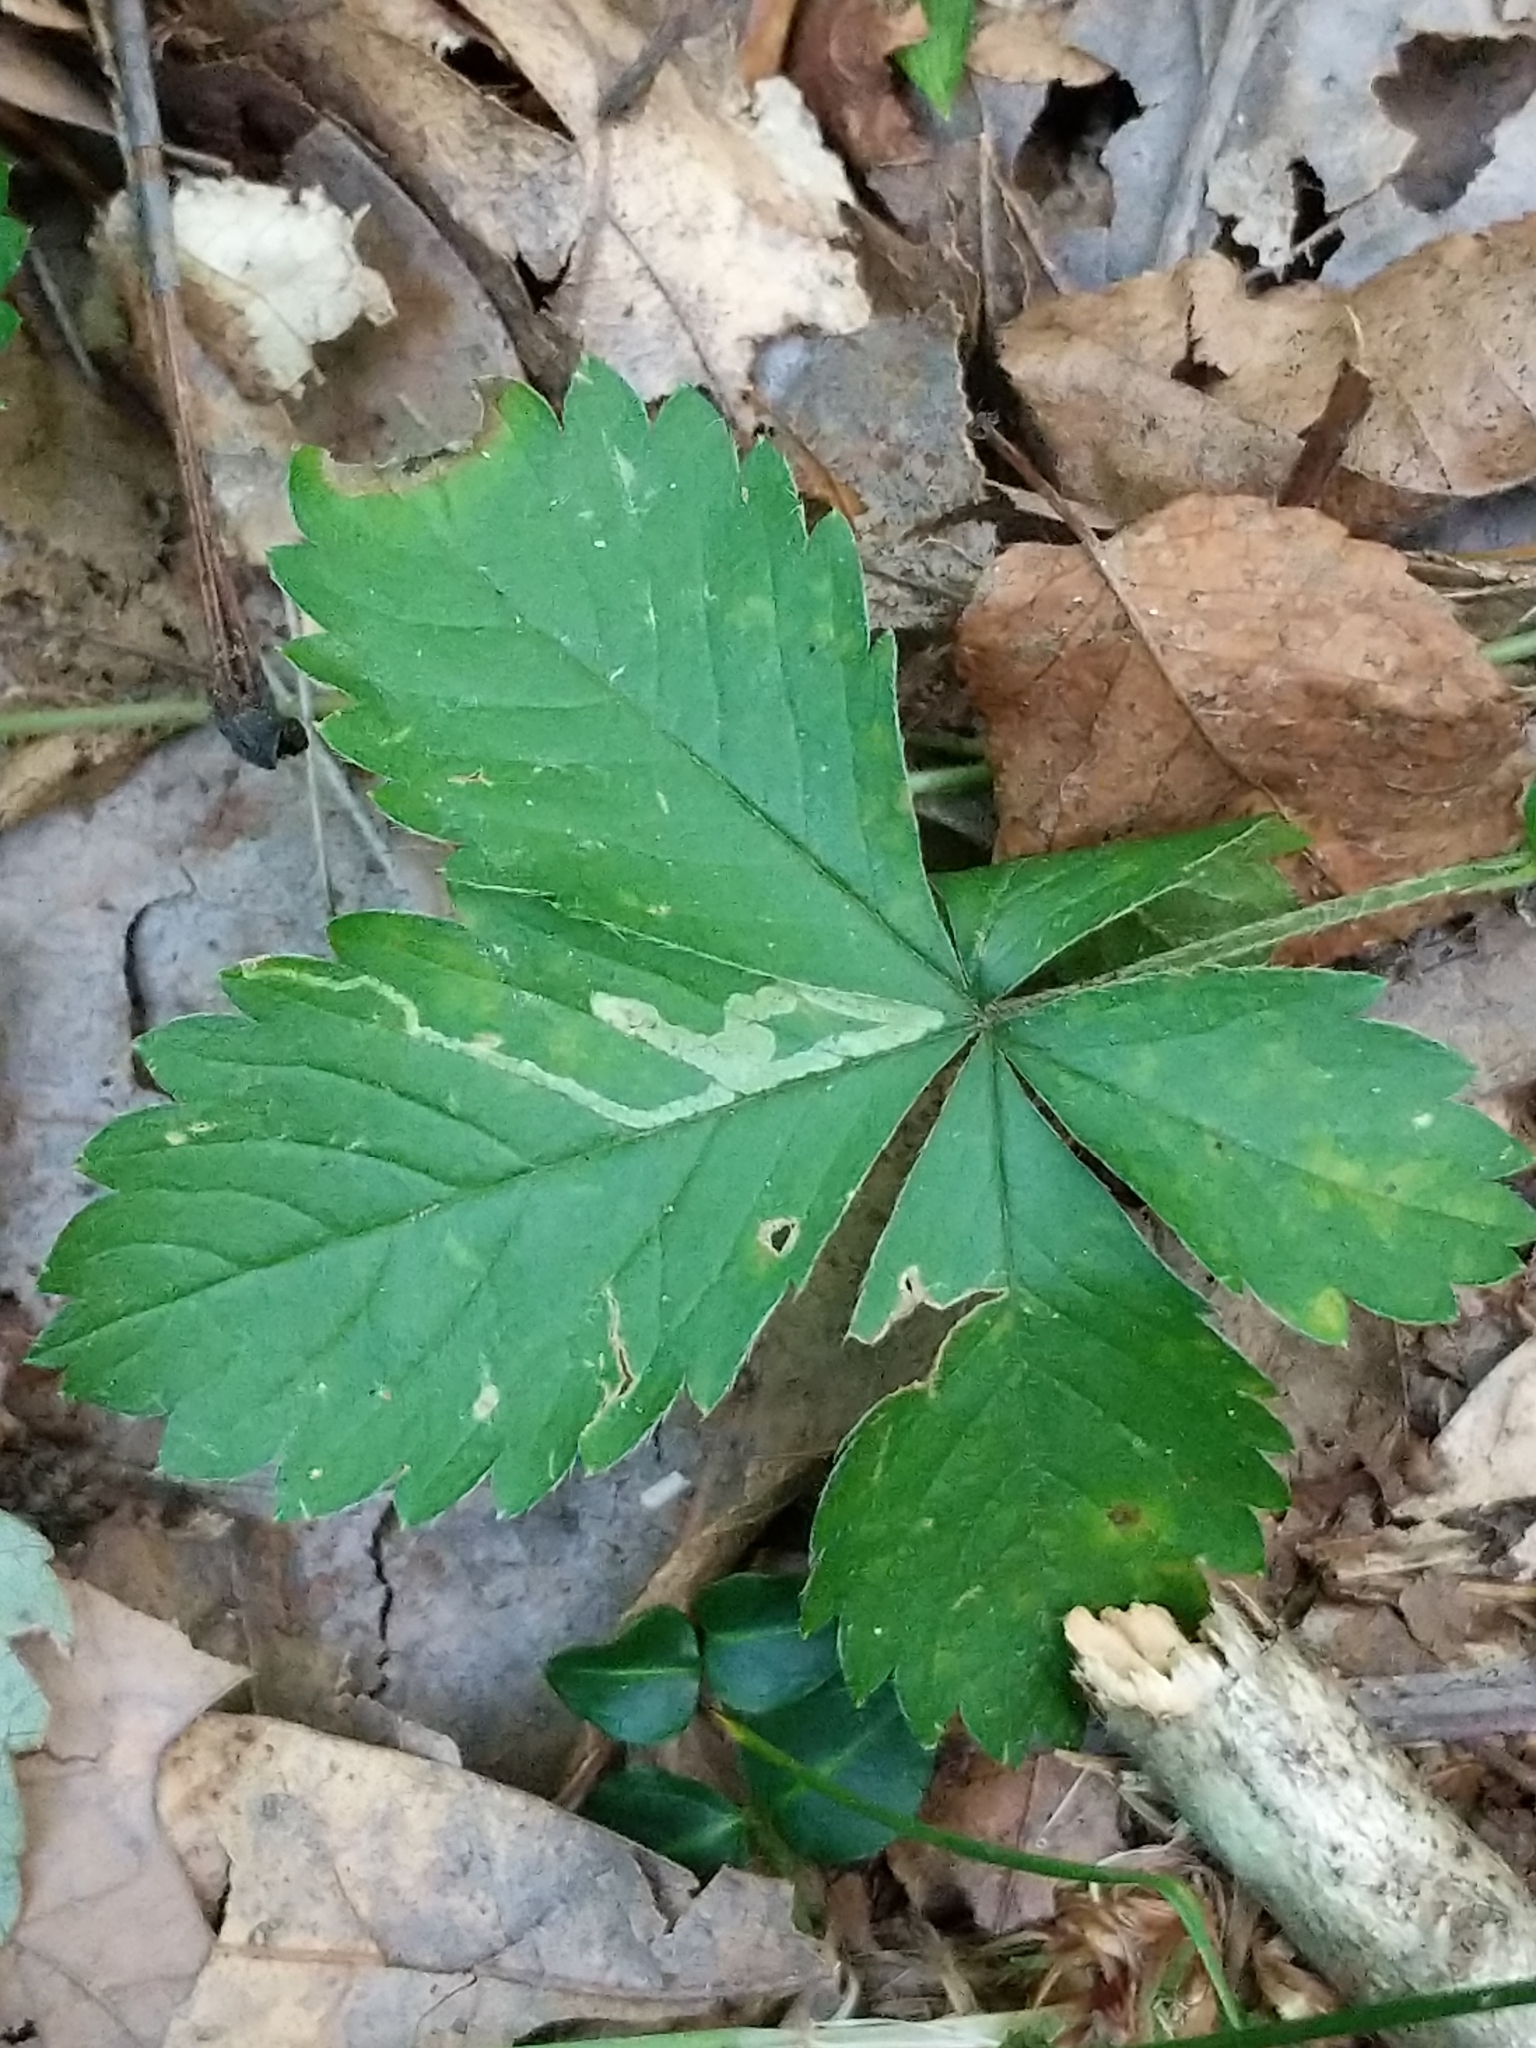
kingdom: Animalia
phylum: Arthropoda
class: Insecta
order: Diptera
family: Agromyzidae
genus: Agromyza
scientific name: Agromyza idaeiana
